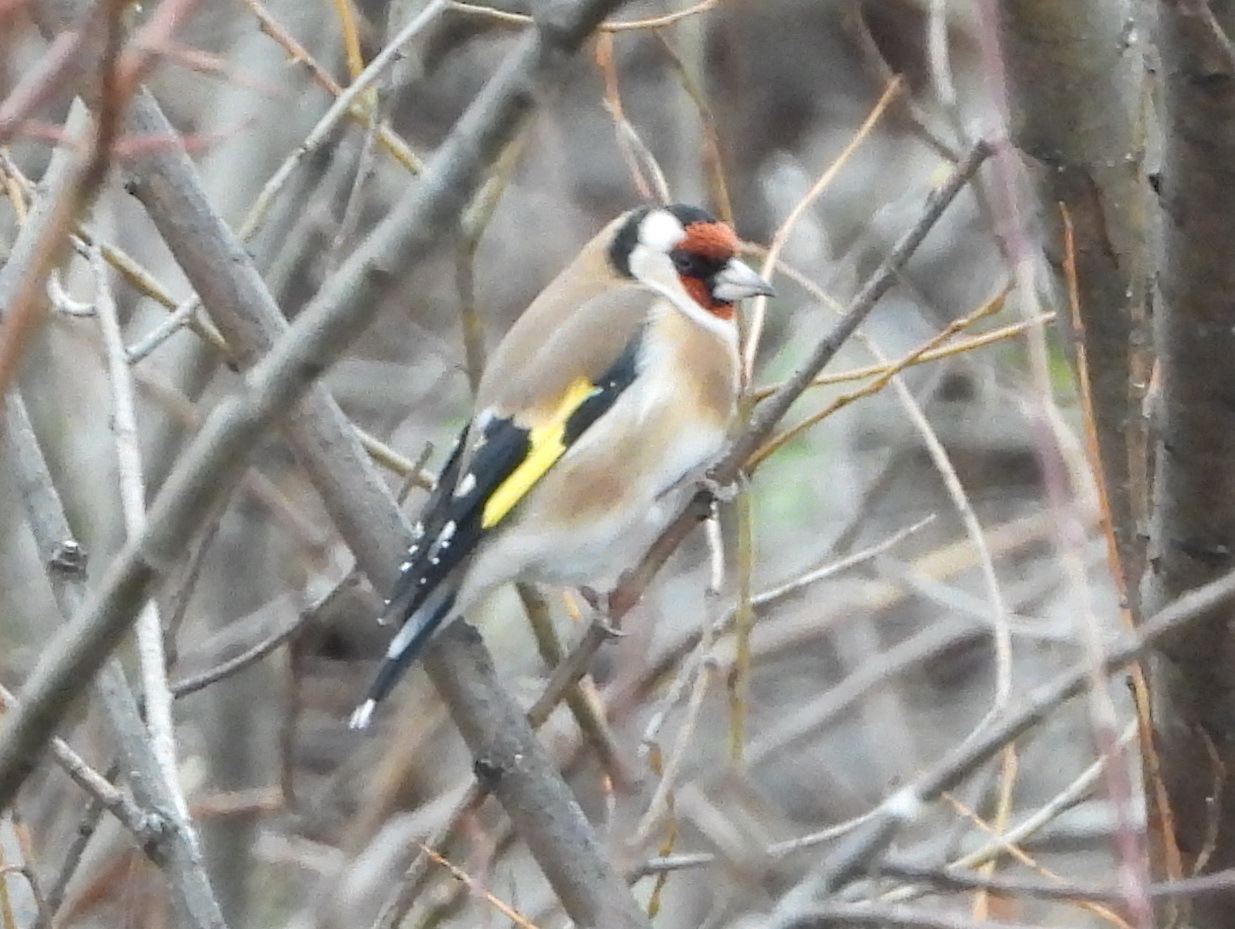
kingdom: Animalia
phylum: Chordata
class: Aves
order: Passeriformes
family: Fringillidae
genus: Carduelis
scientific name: Carduelis carduelis
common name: European goldfinch
